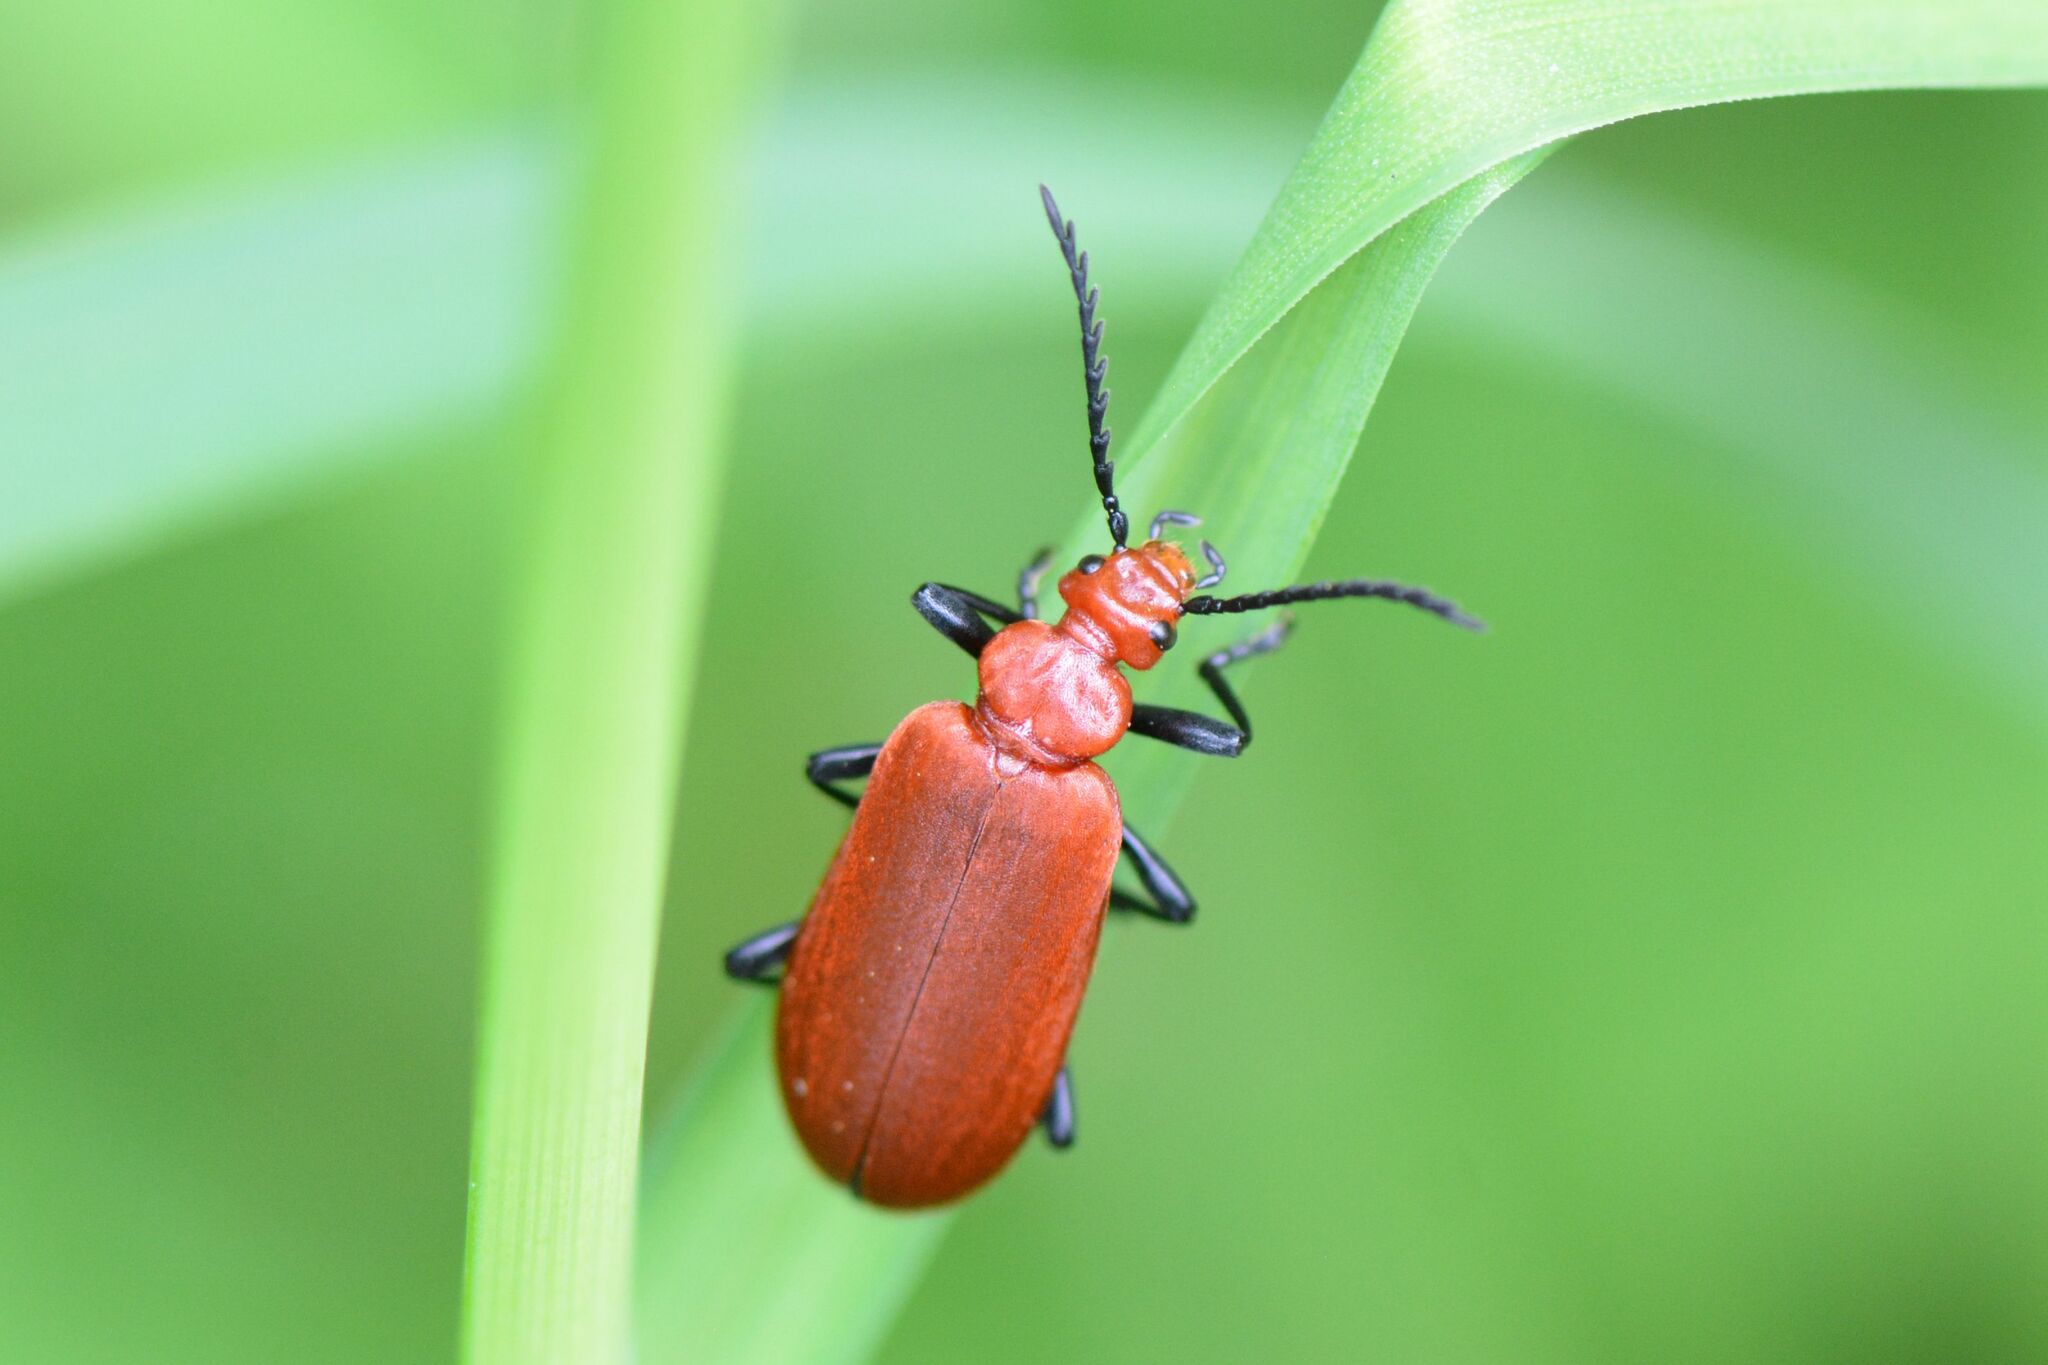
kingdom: Animalia
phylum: Arthropoda
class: Insecta
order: Coleoptera
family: Pyrochroidae
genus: Pyrochroa
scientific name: Pyrochroa serraticornis
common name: Red-headed cardinal beetle
